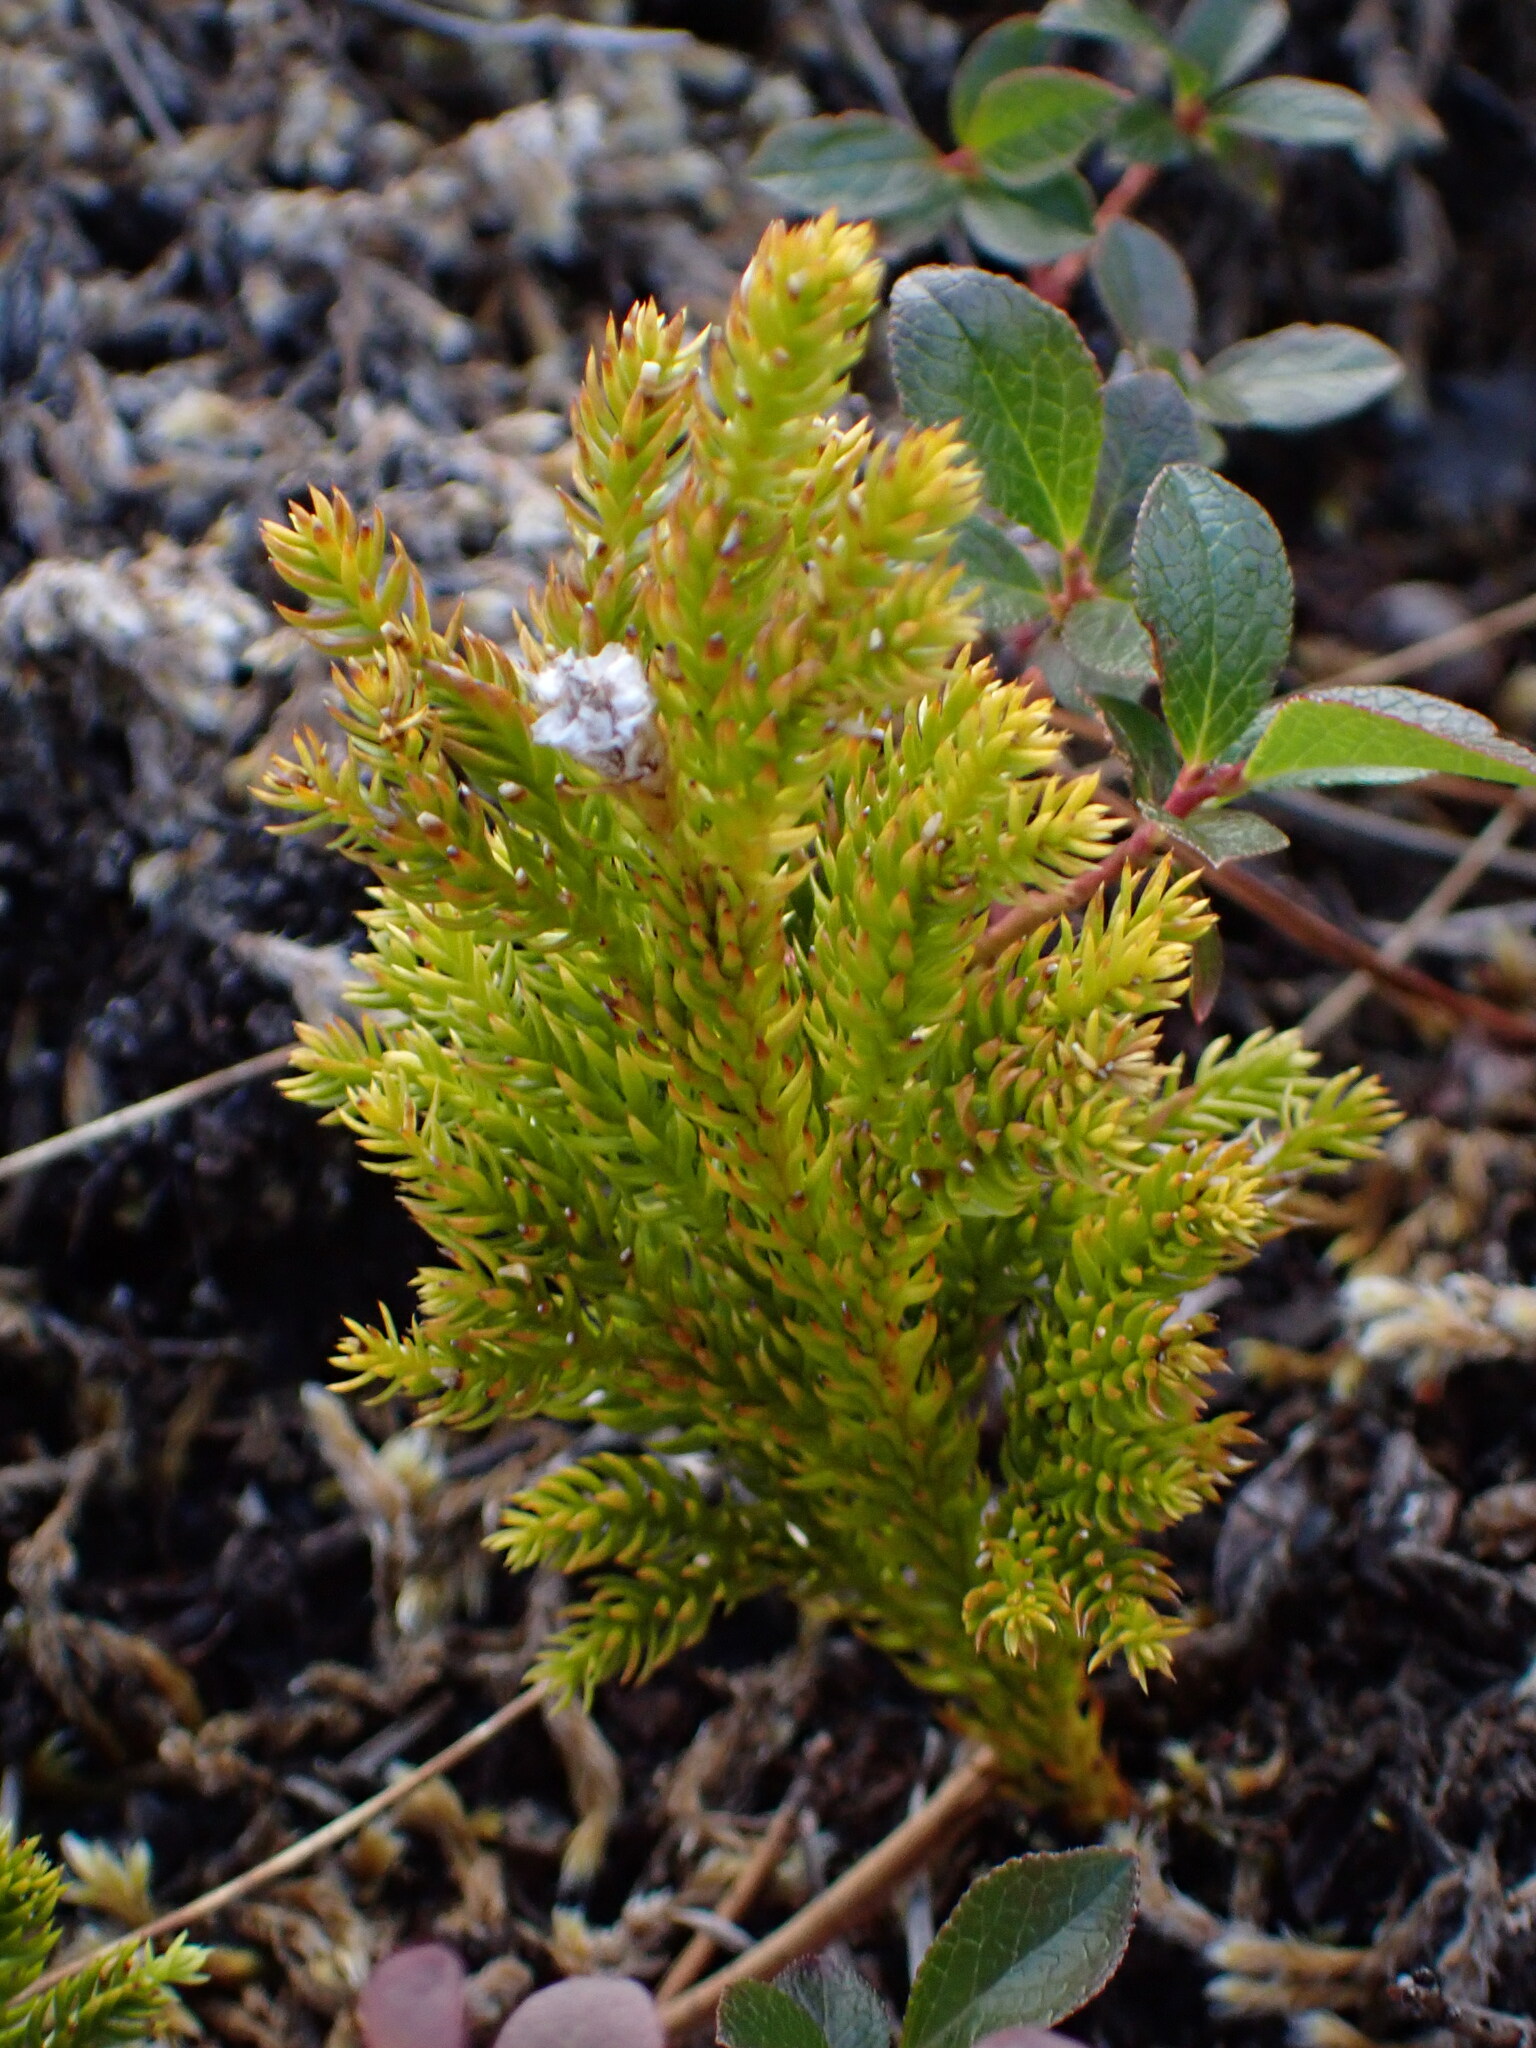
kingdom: Plantae
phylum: Tracheophyta
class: Lycopodiopsida
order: Lycopodiales
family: Lycopodiaceae
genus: Dendrolycopodium
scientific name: Dendrolycopodium dendroideum
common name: Northern tree-clubmoss
